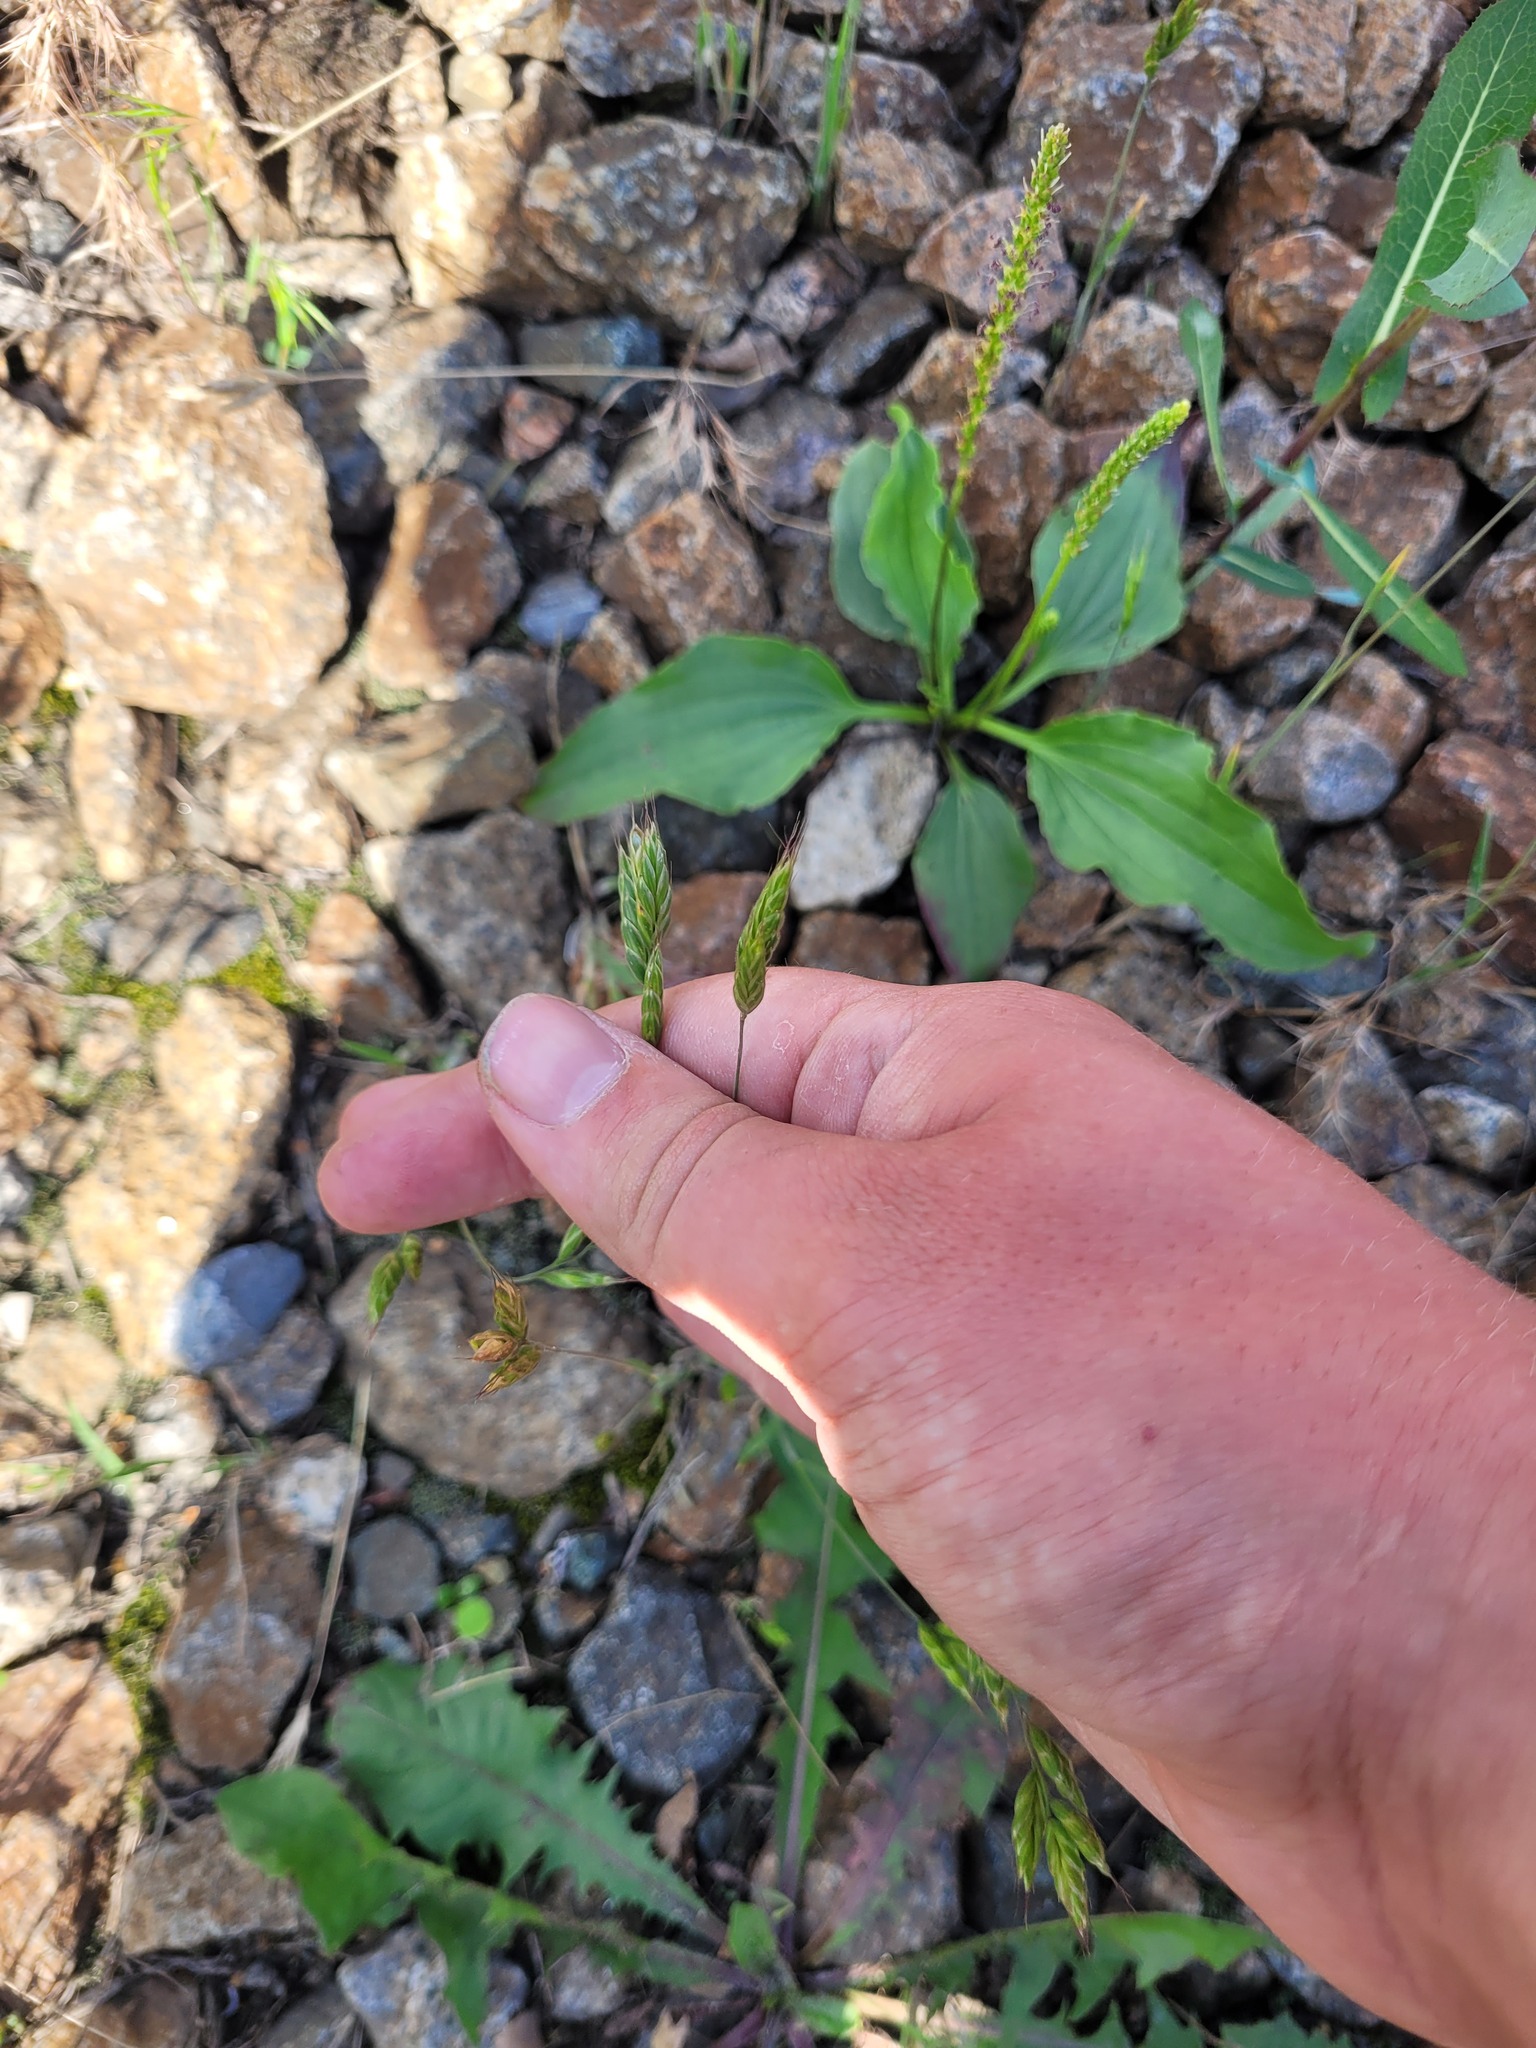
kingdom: Plantae
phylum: Tracheophyta
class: Liliopsida
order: Poales
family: Poaceae
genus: Bromus
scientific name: Bromus hordeaceus
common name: Soft brome
